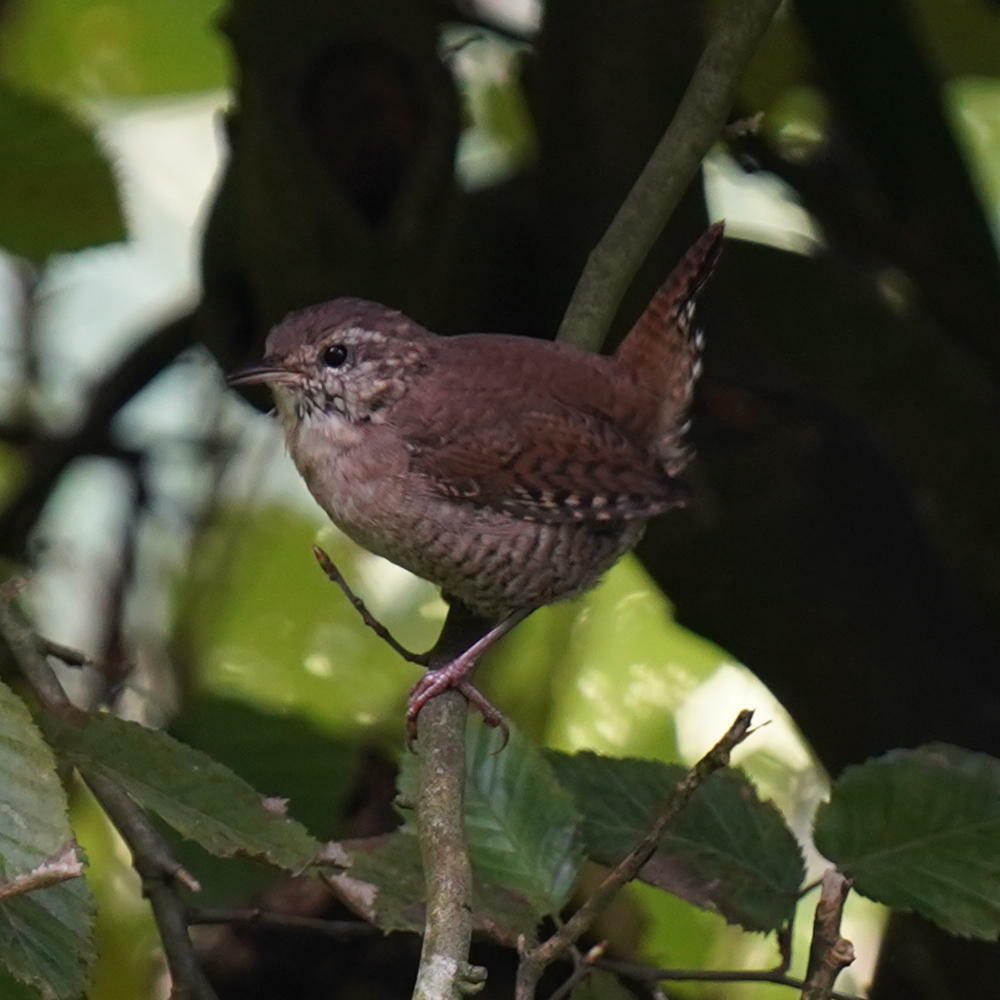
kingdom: Animalia
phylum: Chordata
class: Aves
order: Passeriformes
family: Troglodytidae
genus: Troglodytes
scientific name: Troglodytes troglodytes
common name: Eurasian wren
